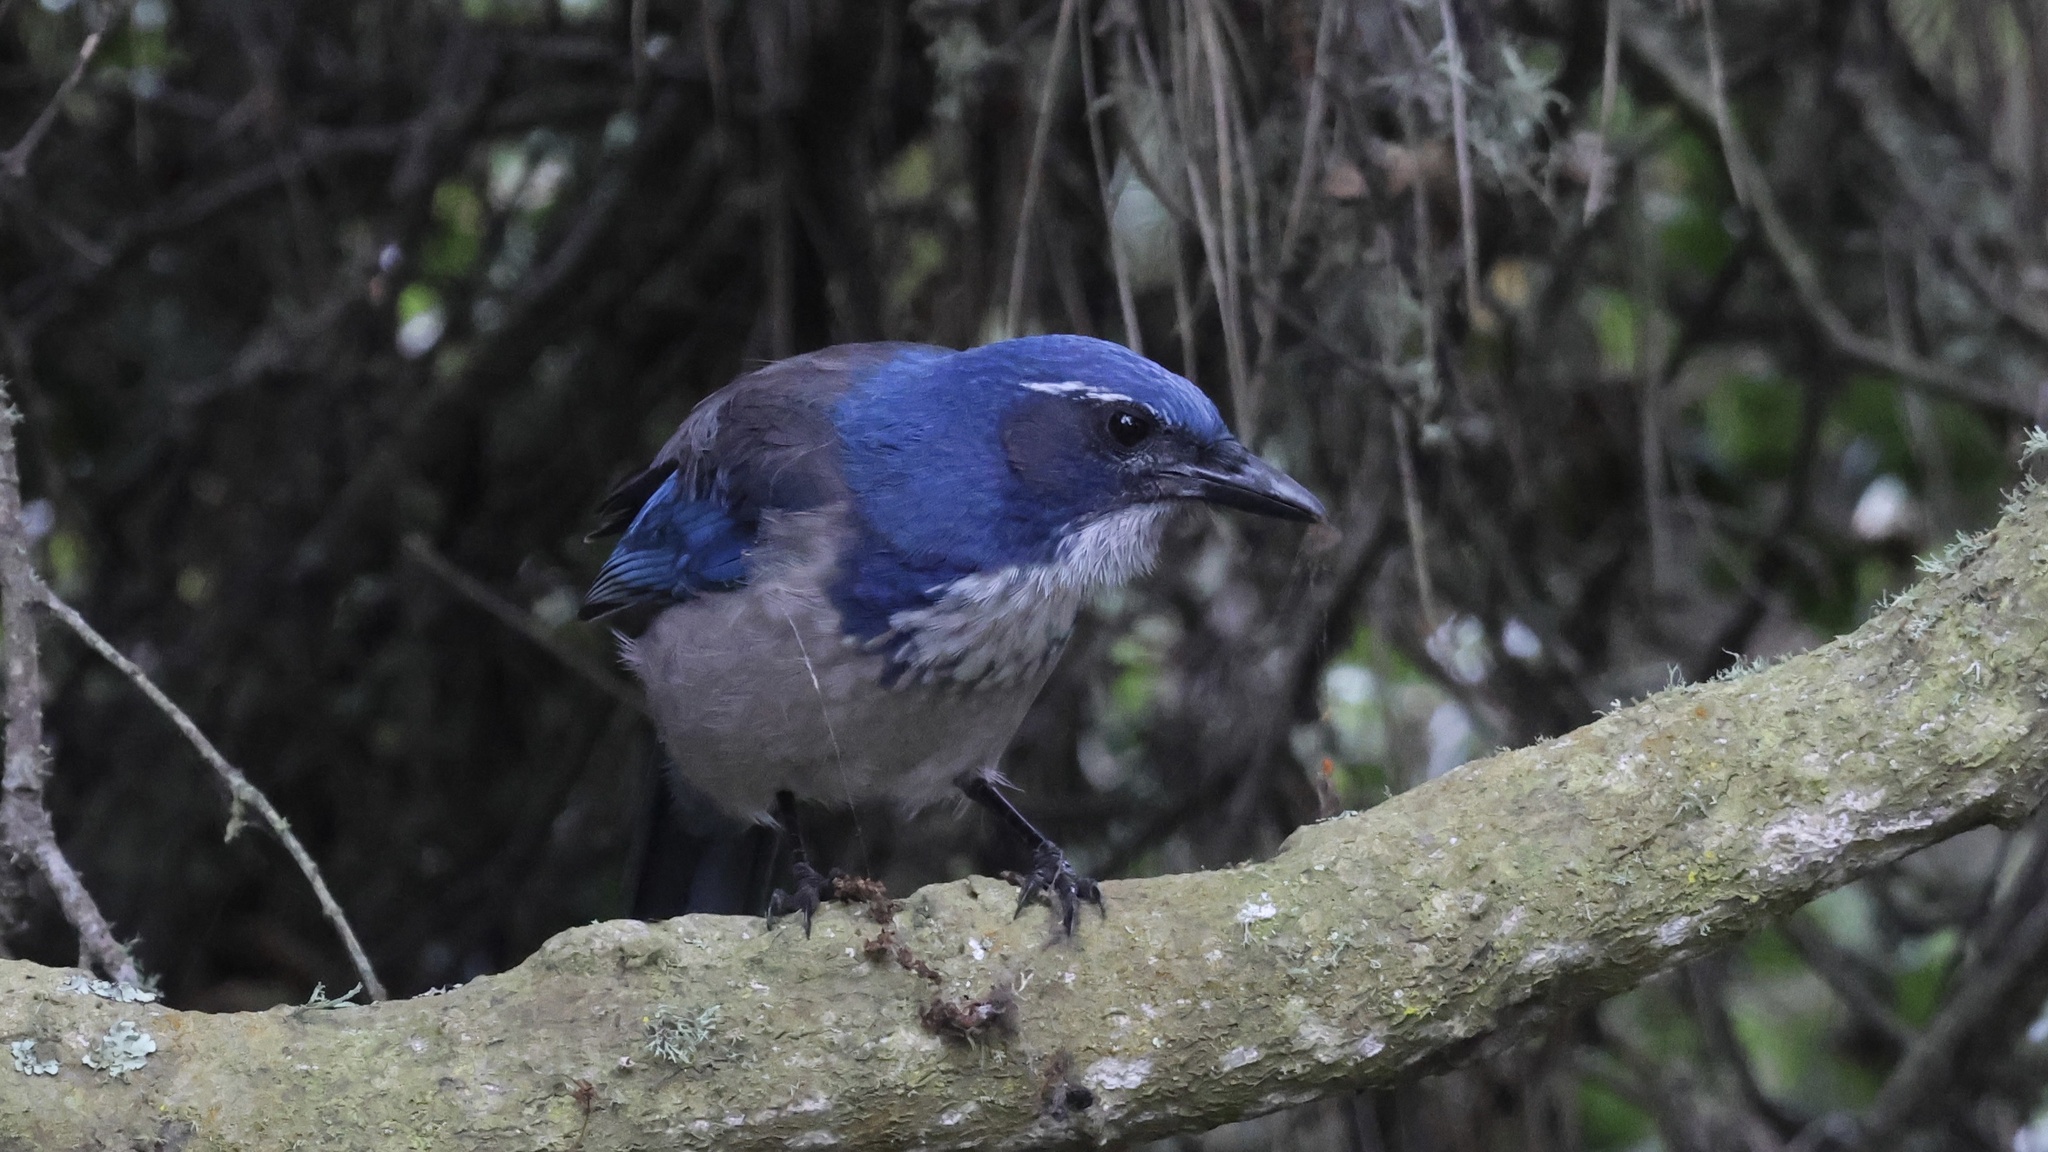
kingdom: Animalia
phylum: Chordata
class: Aves
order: Passeriformes
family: Corvidae
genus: Aphelocoma
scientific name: Aphelocoma californica
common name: California scrub-jay
